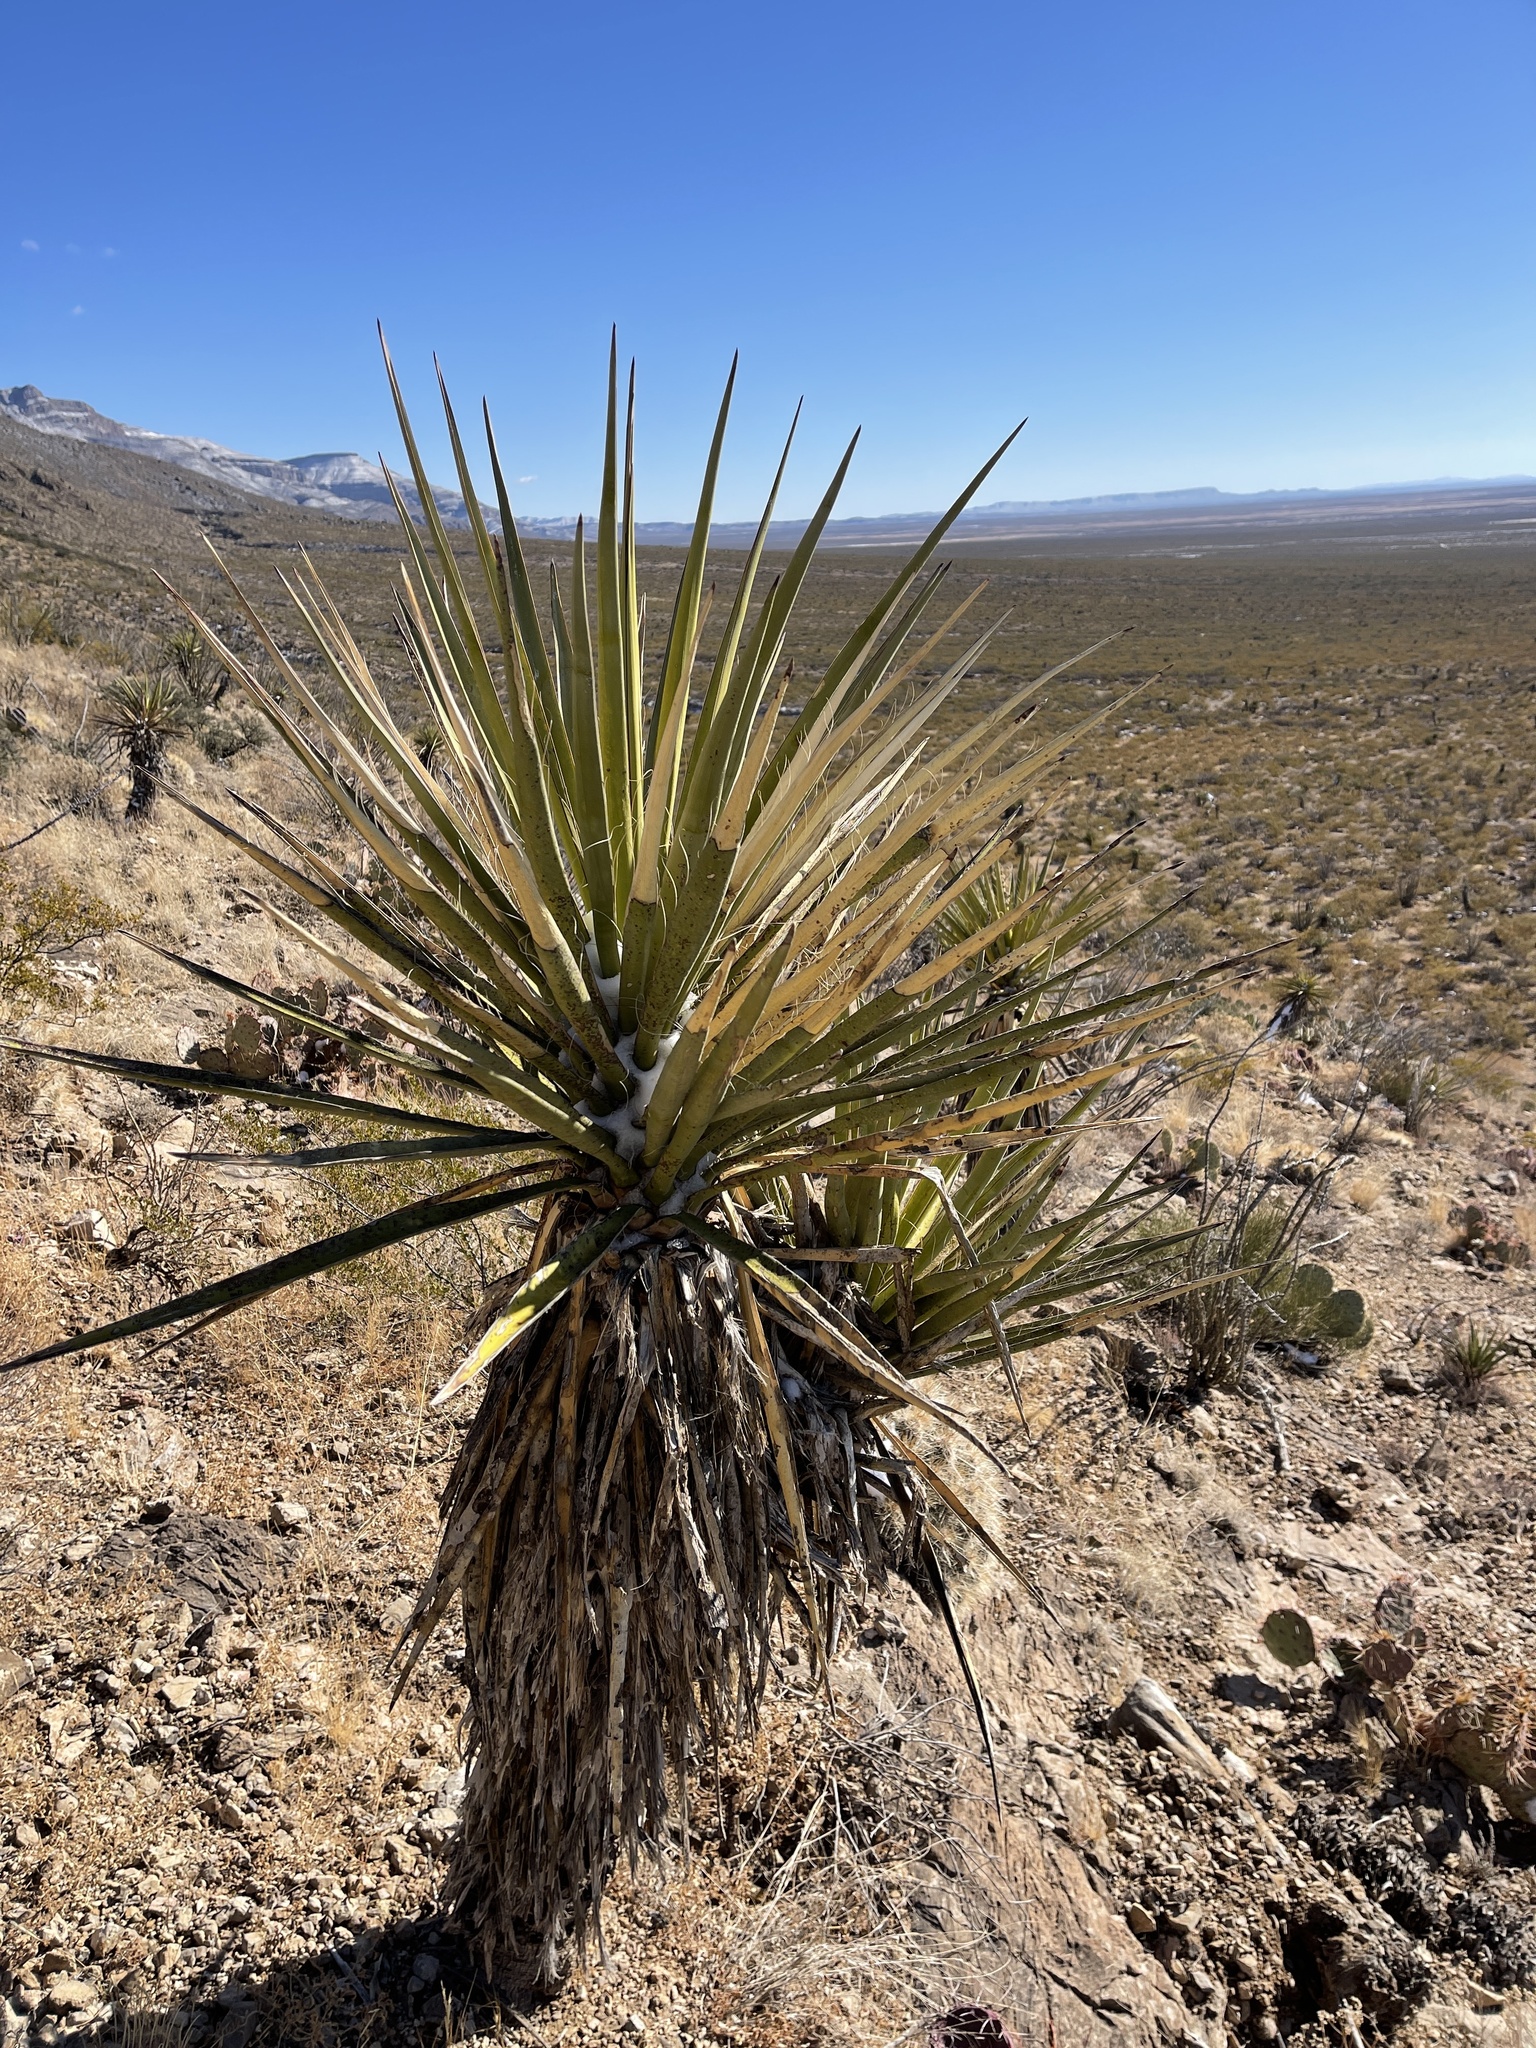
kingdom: Plantae
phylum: Tracheophyta
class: Liliopsida
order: Asparagales
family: Asparagaceae
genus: Yucca
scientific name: Yucca treculiana
